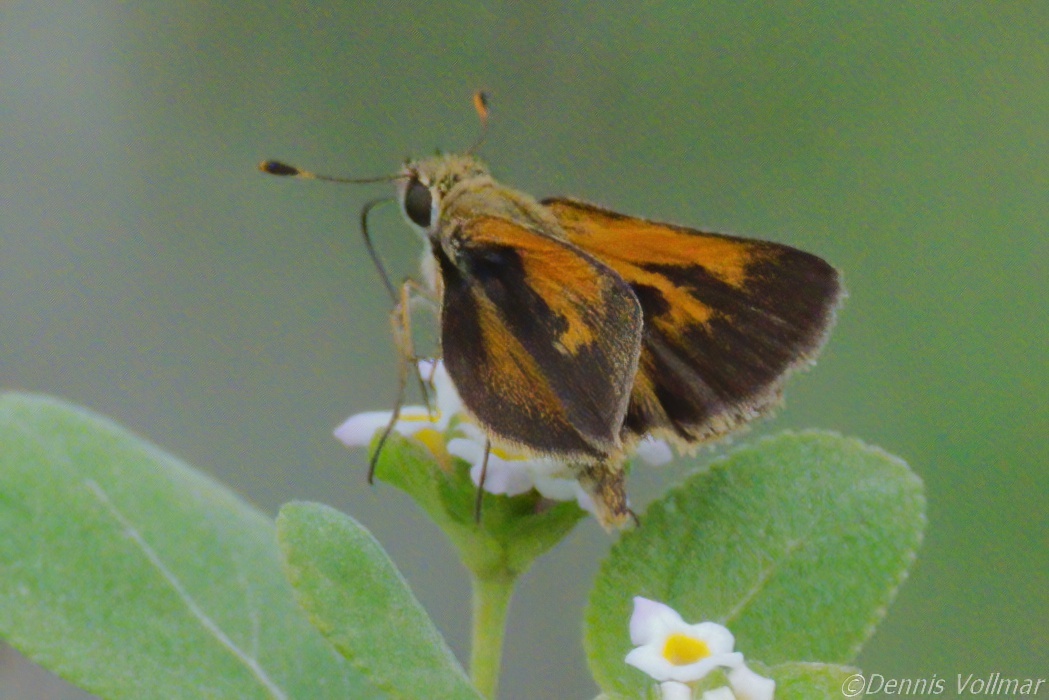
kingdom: Animalia
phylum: Arthropoda
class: Insecta
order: Lepidoptera
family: Hesperiidae
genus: Polites
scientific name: Polites baracoa
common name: Baracoa skipper
